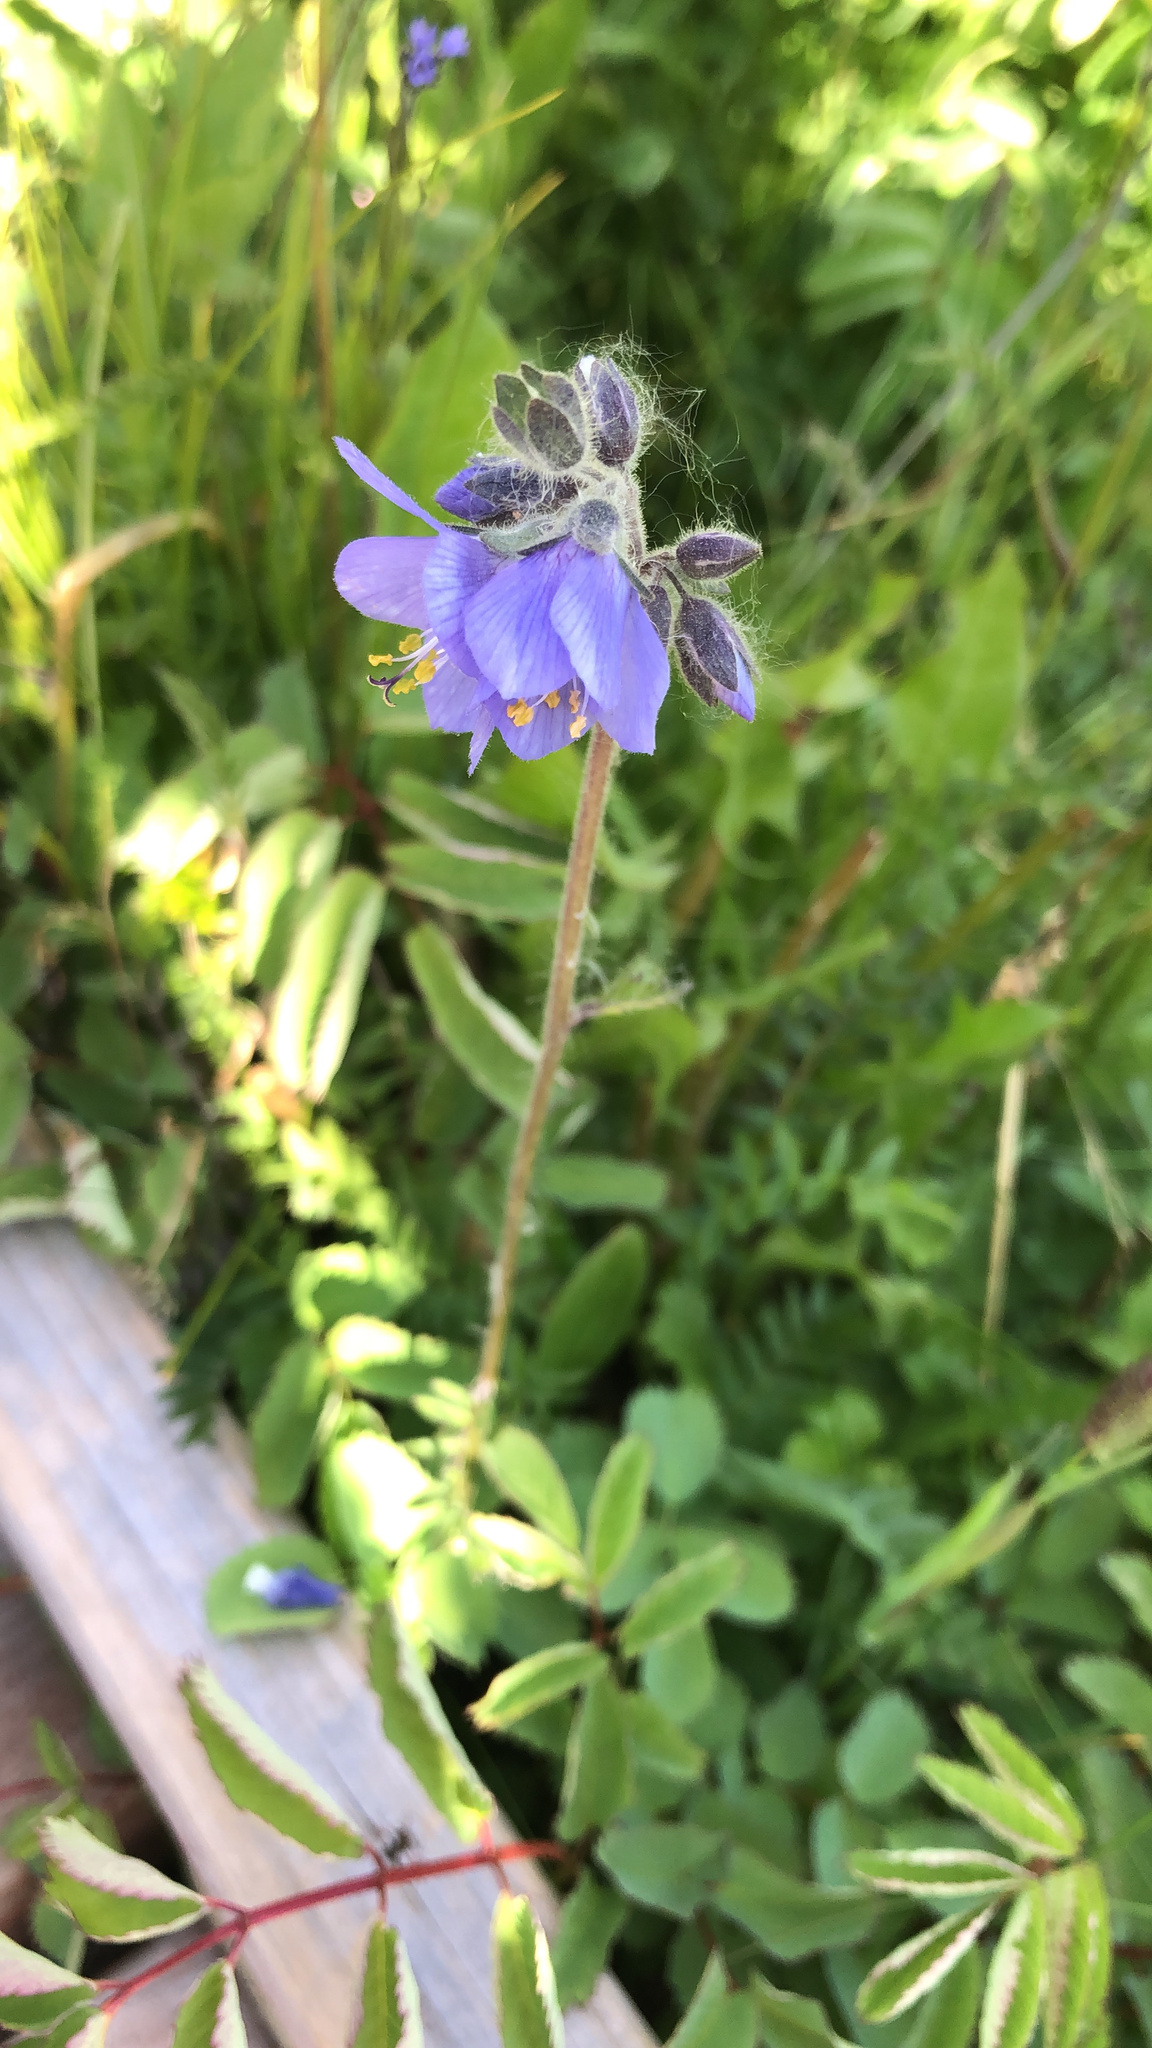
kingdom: Plantae
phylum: Tracheophyta
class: Magnoliopsida
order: Ericales
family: Polemoniaceae
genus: Polemonium
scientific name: Polemonium acutiflorum
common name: Tall jacob's-ladder
